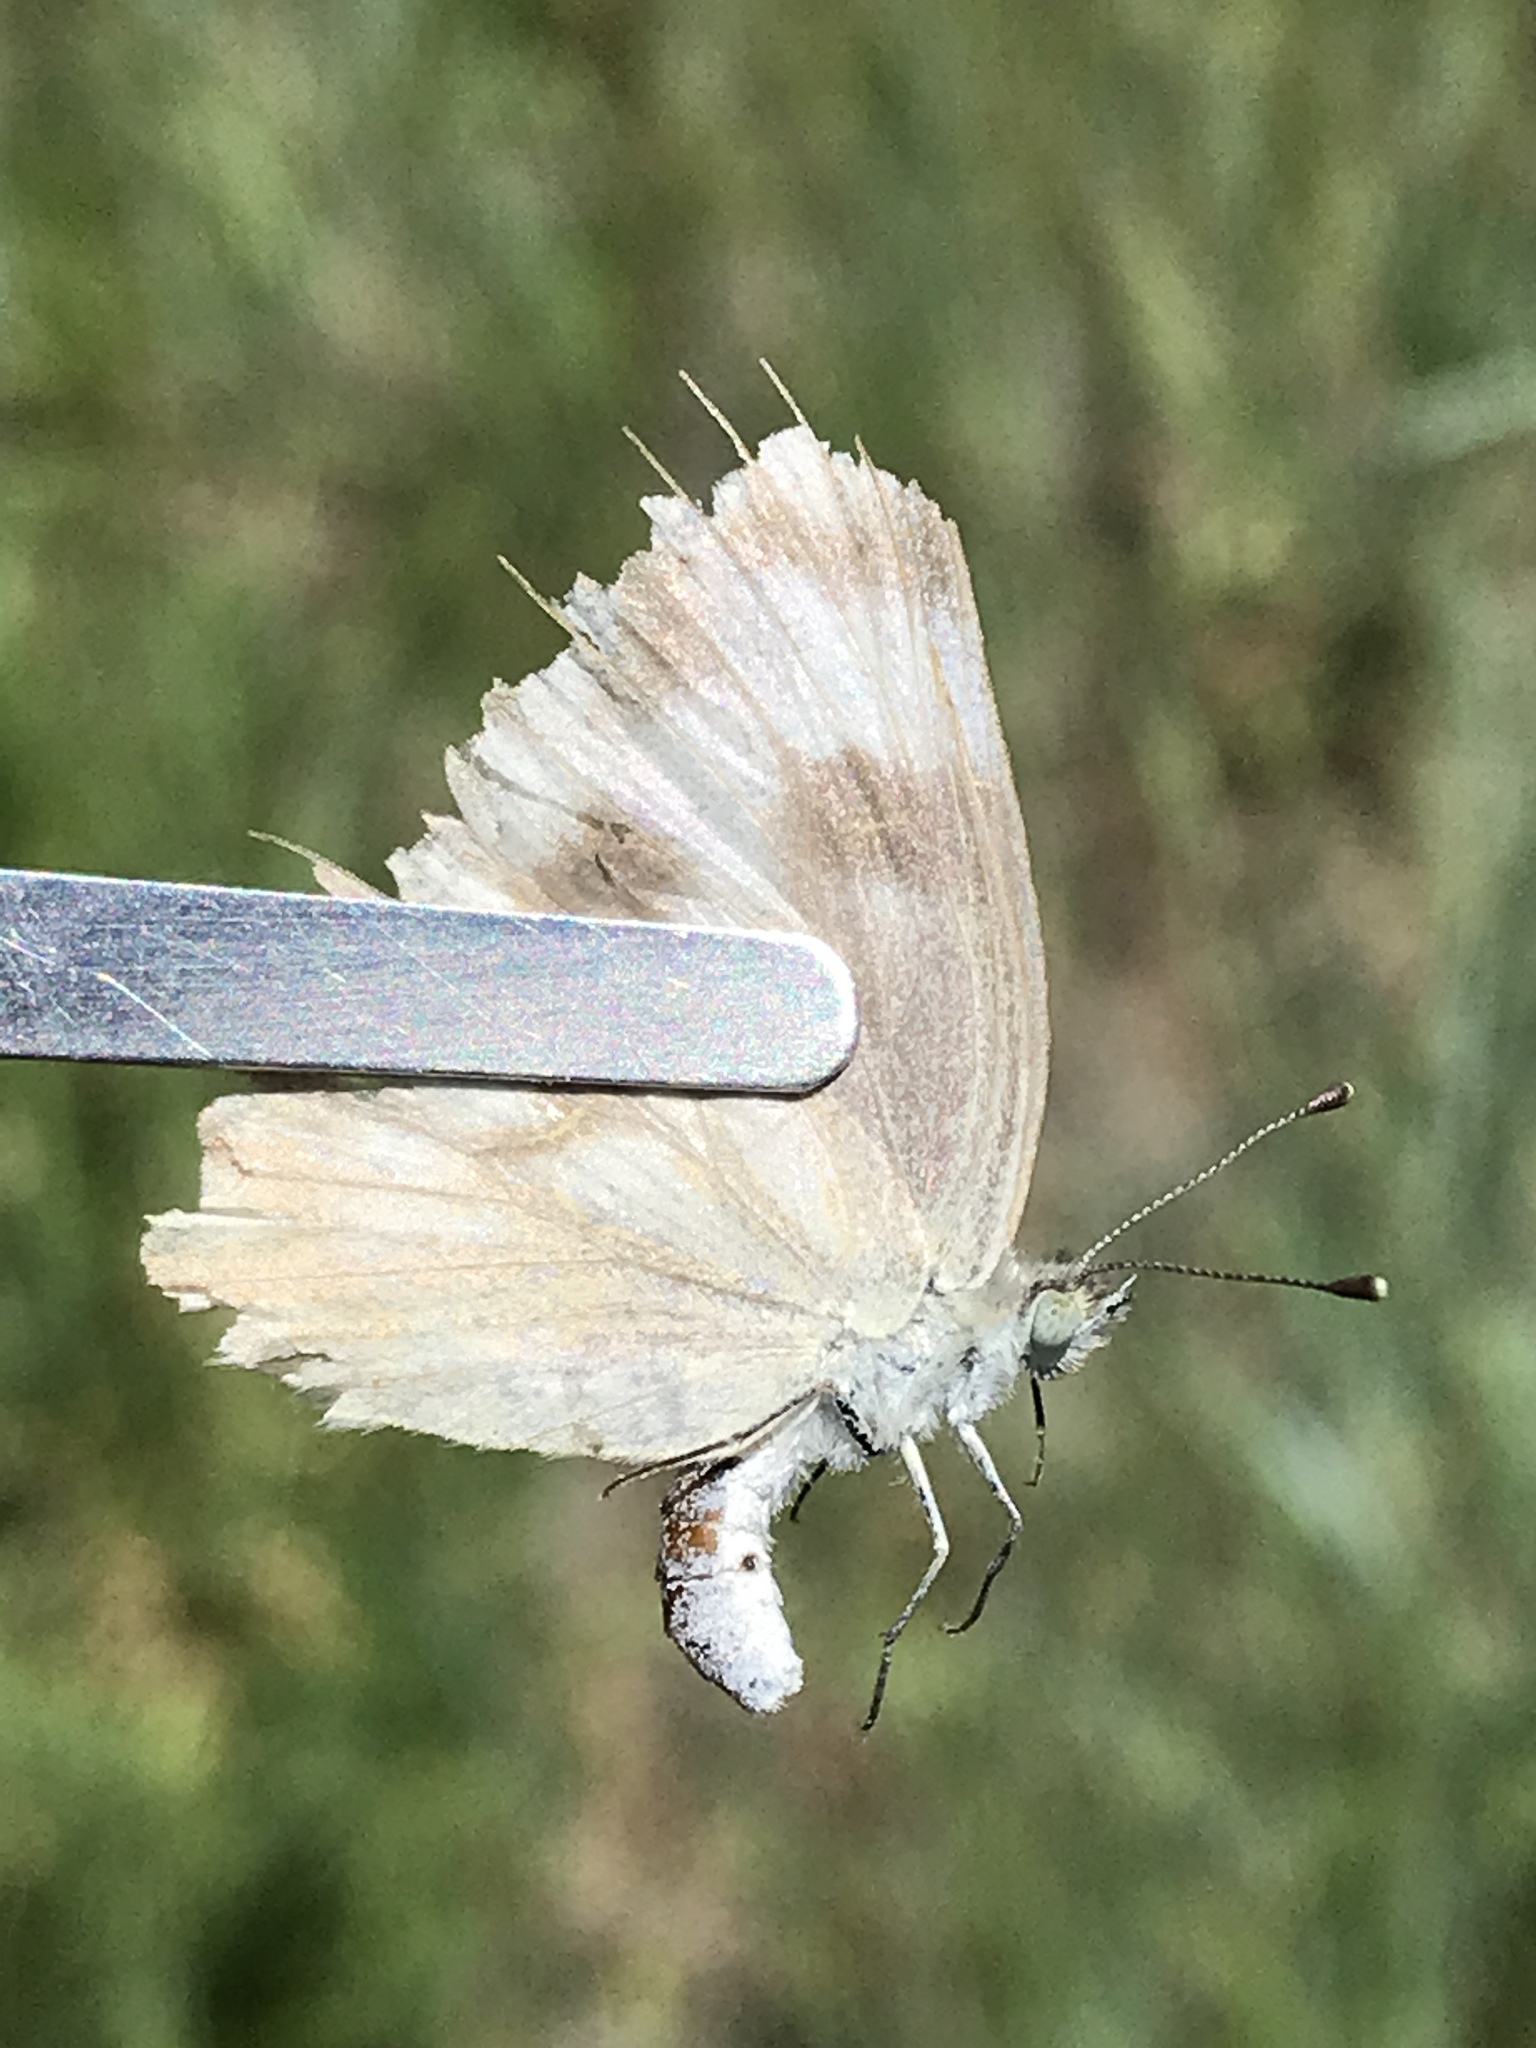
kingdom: Animalia
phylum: Arthropoda
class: Insecta
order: Lepidoptera
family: Pieridae
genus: Pontia
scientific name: Pontia protodice
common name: Checkered white
